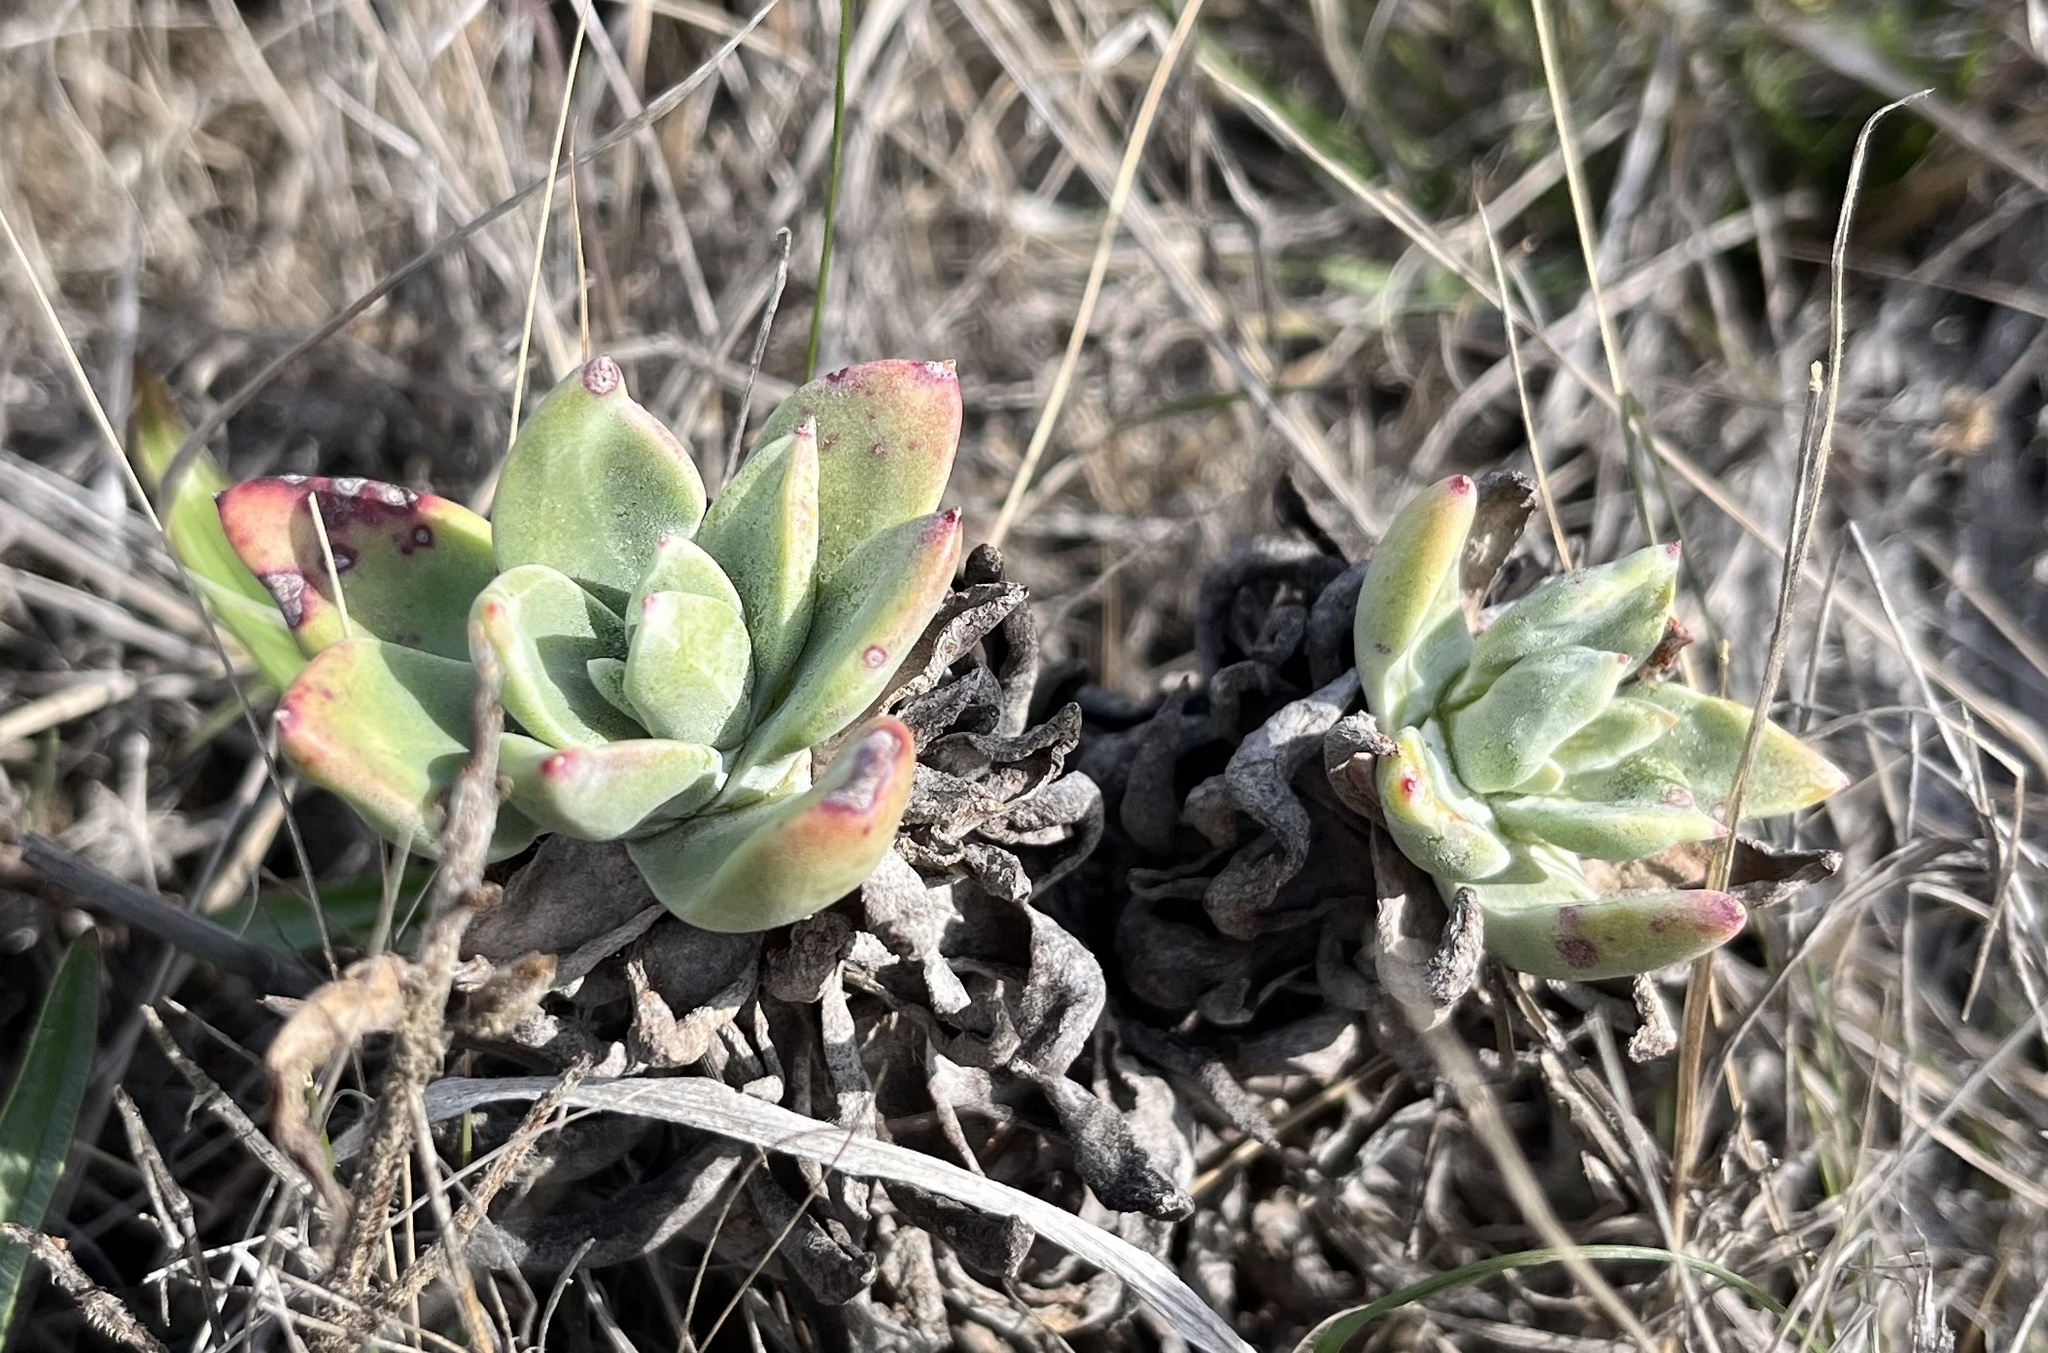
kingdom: Plantae
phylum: Tracheophyta
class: Magnoliopsida
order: Saxifragales
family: Crassulaceae
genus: Dudleya
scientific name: Dudleya farinosa
